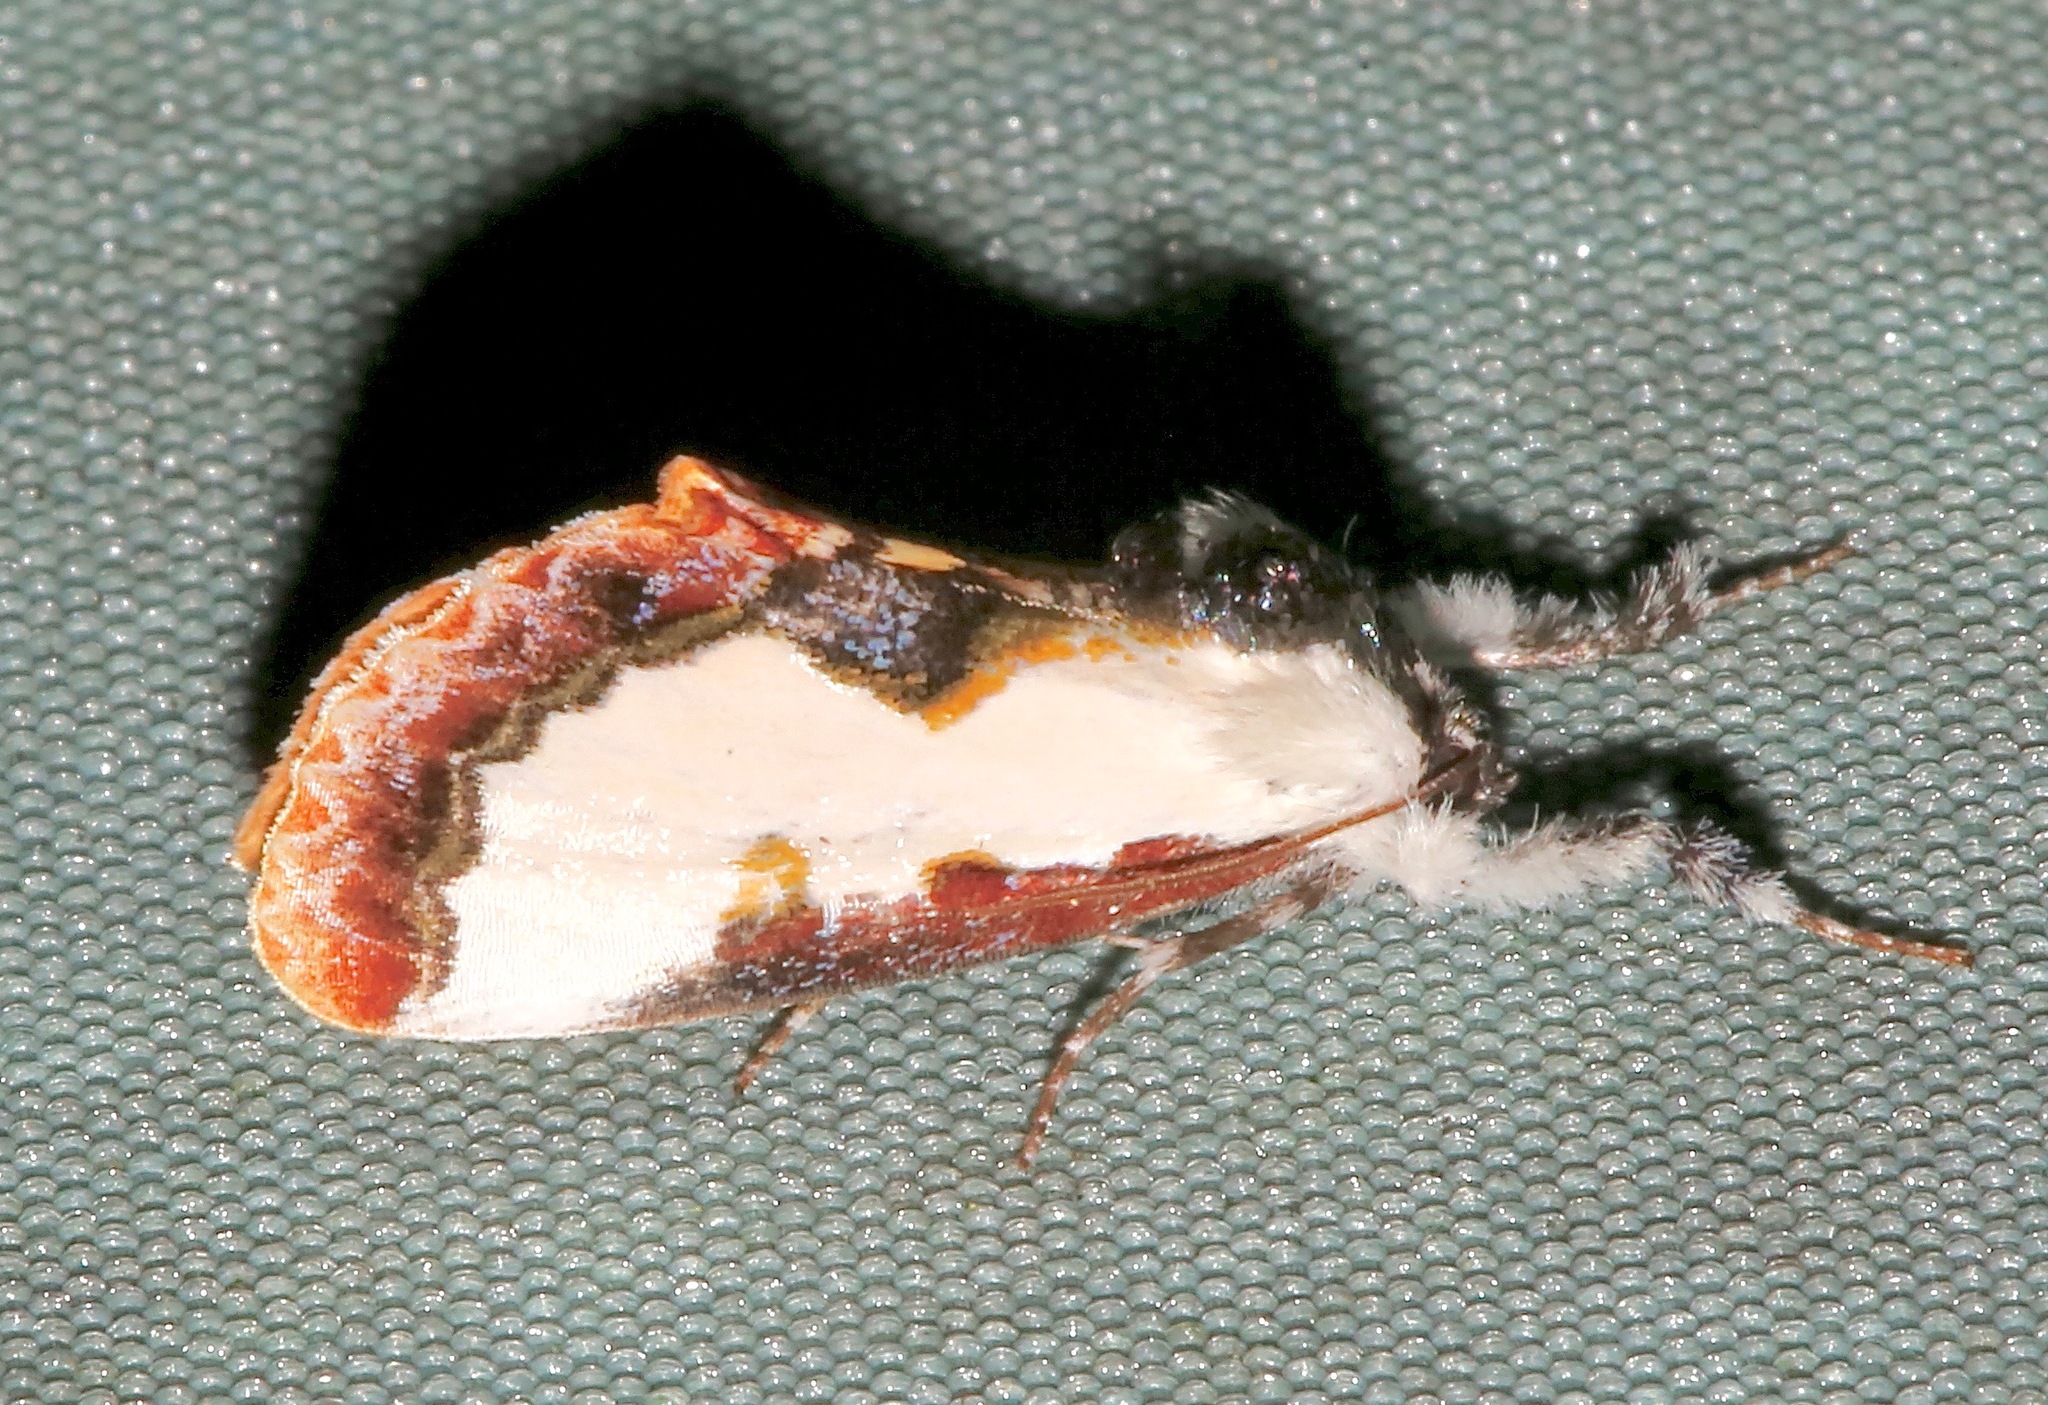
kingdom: Animalia
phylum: Arthropoda
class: Insecta
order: Lepidoptera
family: Noctuidae
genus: Eudryas
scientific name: Eudryas unio
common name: Pearly wood-nymph
